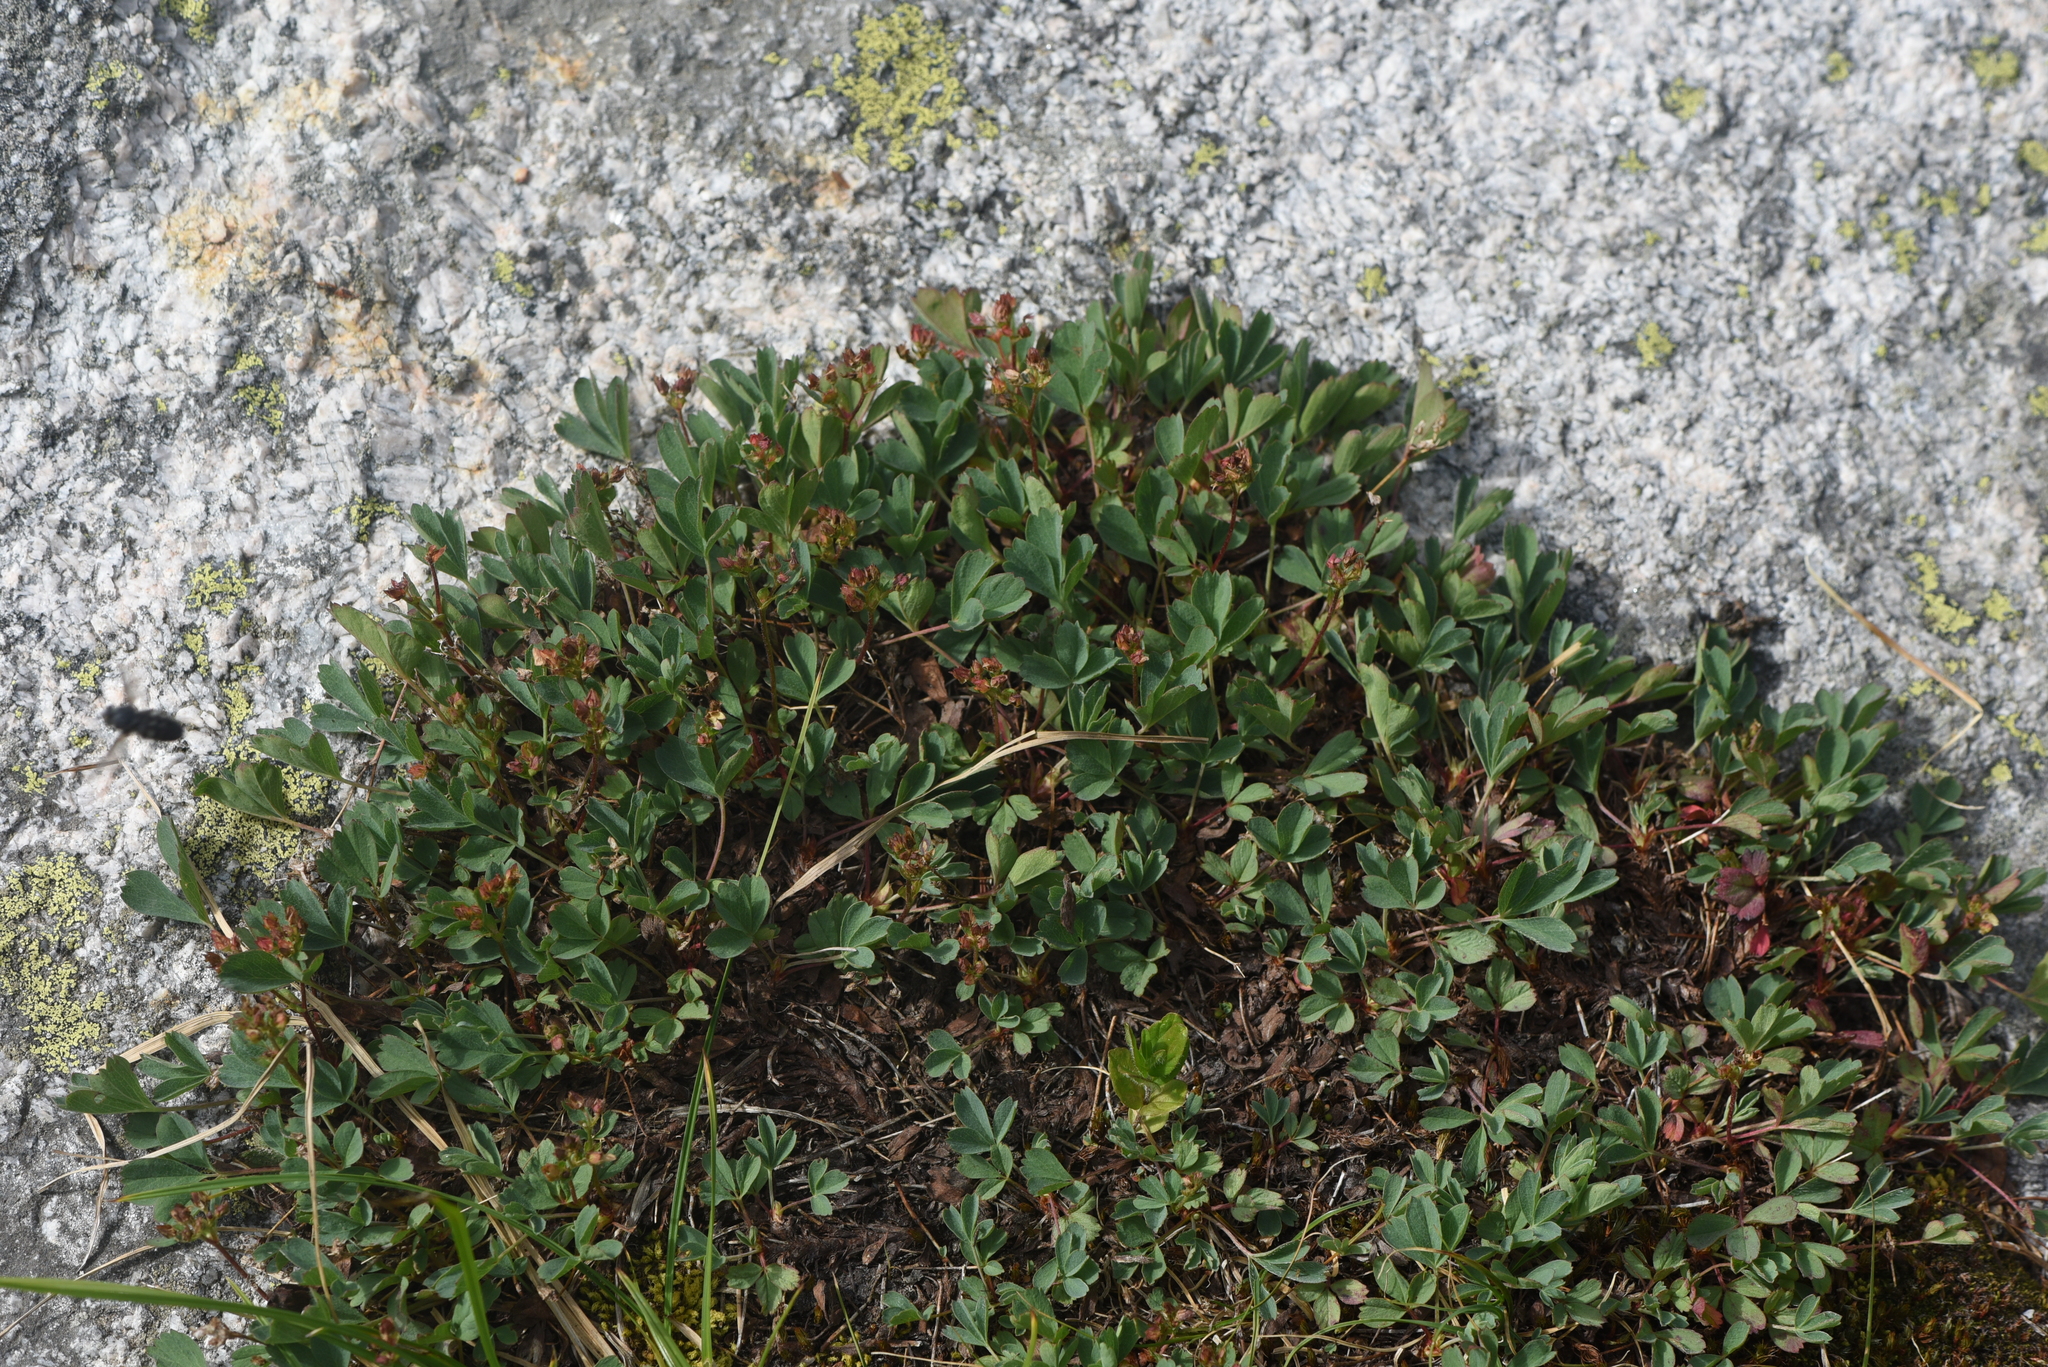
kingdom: Plantae
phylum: Tracheophyta
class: Magnoliopsida
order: Rosales
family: Rosaceae
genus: Sibbaldia
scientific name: Sibbaldia procumbens
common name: Creeping sibbaldia
